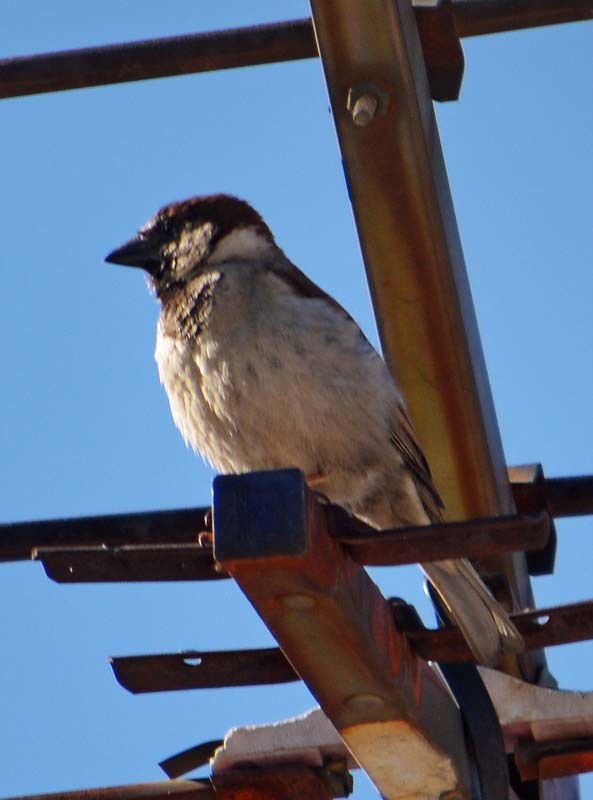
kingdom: Animalia
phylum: Chordata
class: Aves
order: Passeriformes
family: Passeridae
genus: Passer
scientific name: Passer domesticus
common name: House sparrow
